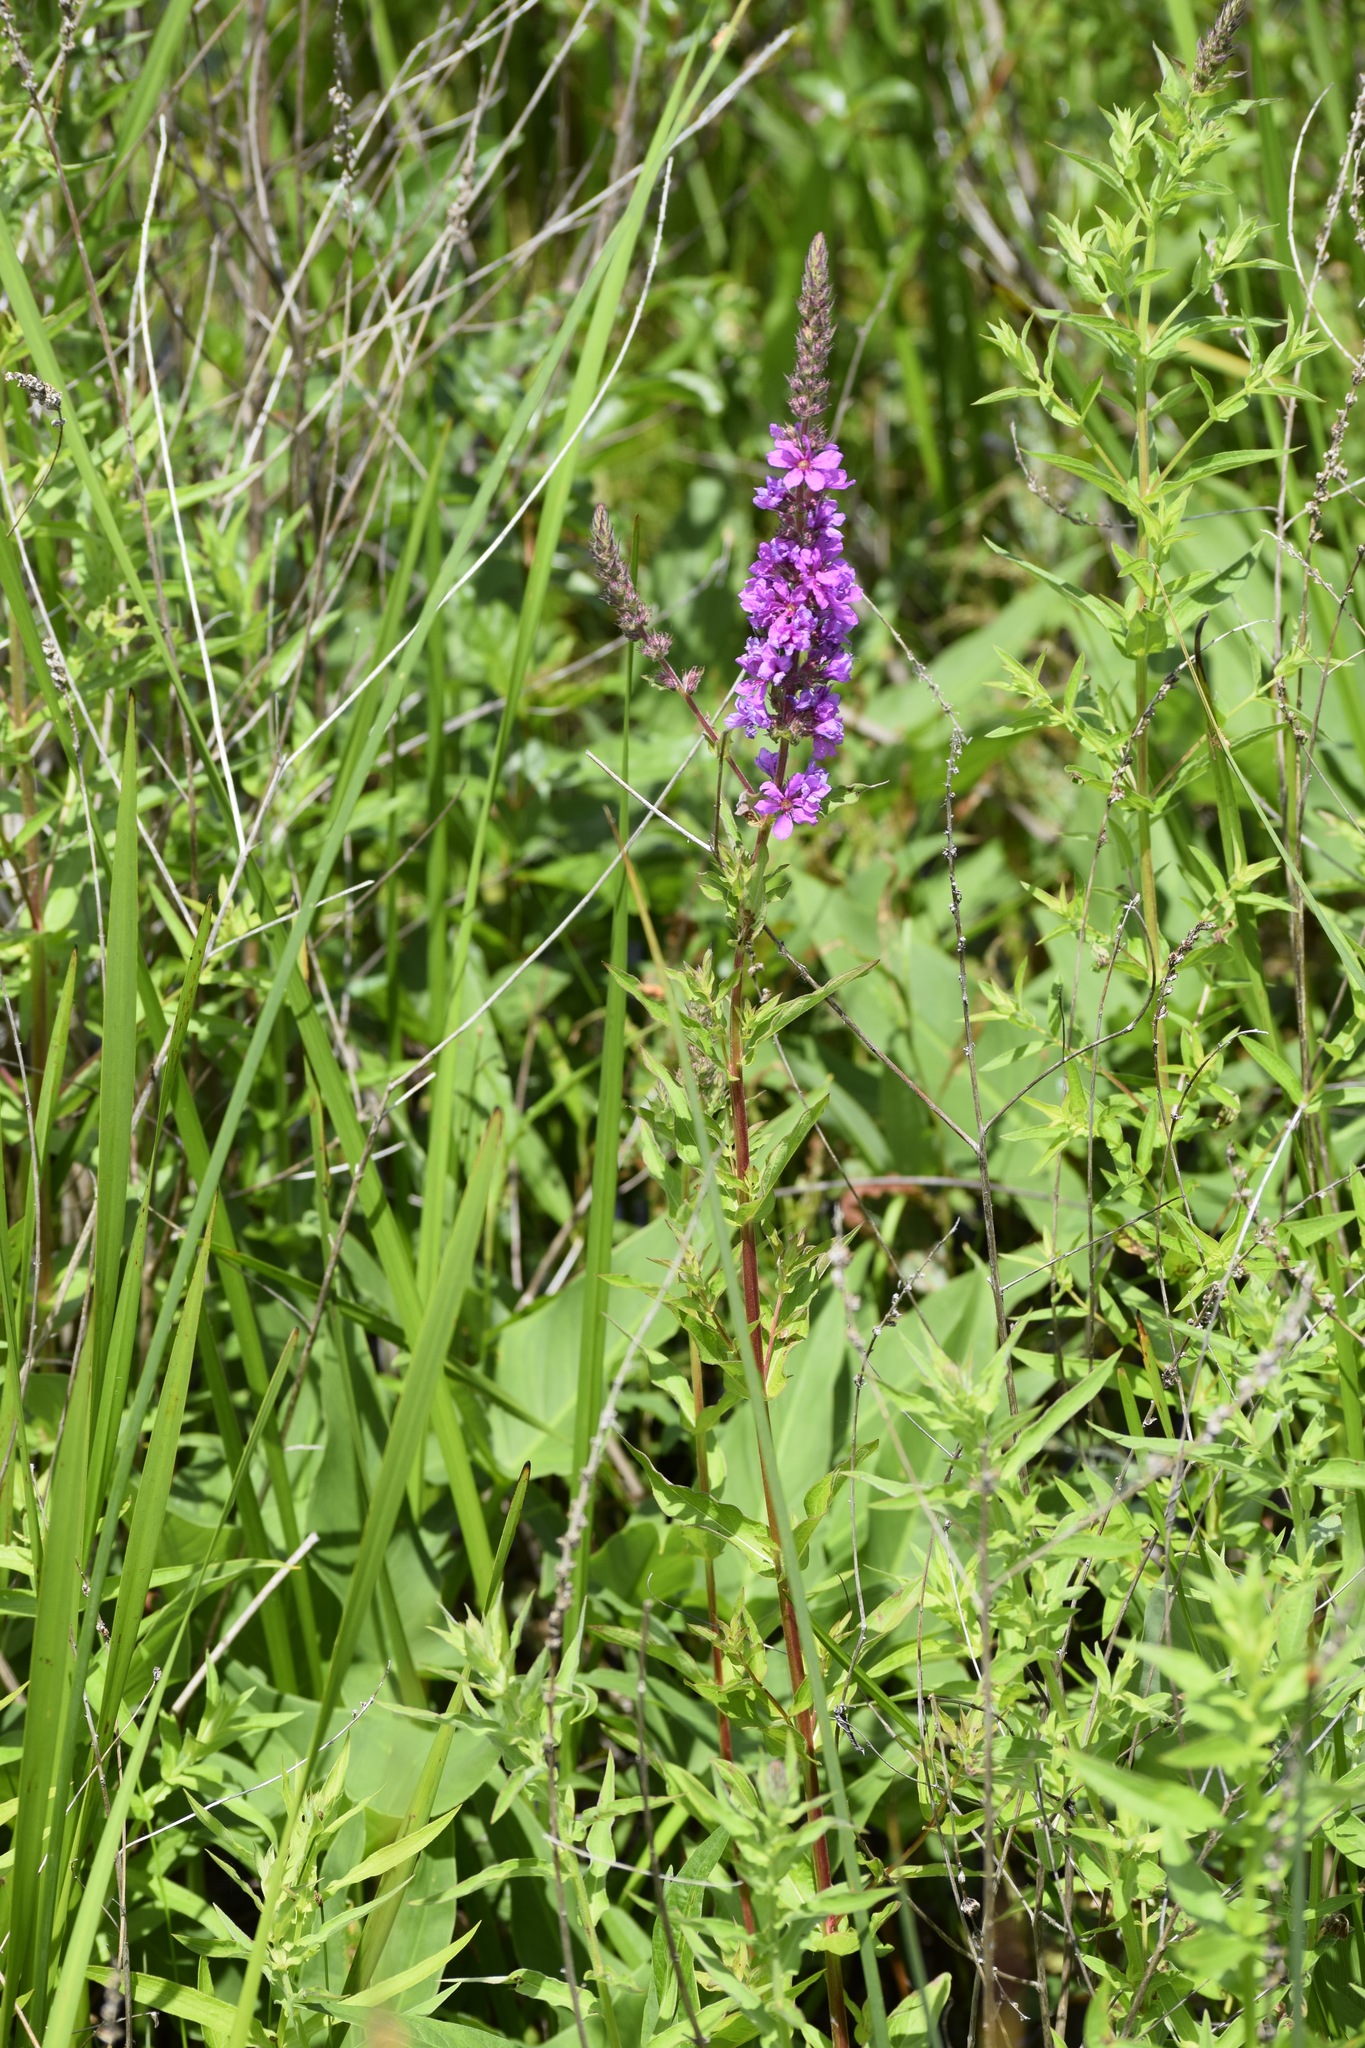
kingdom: Plantae
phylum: Tracheophyta
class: Magnoliopsida
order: Myrtales
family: Lythraceae
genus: Lythrum
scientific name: Lythrum salicaria
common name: Purple loosestrife
